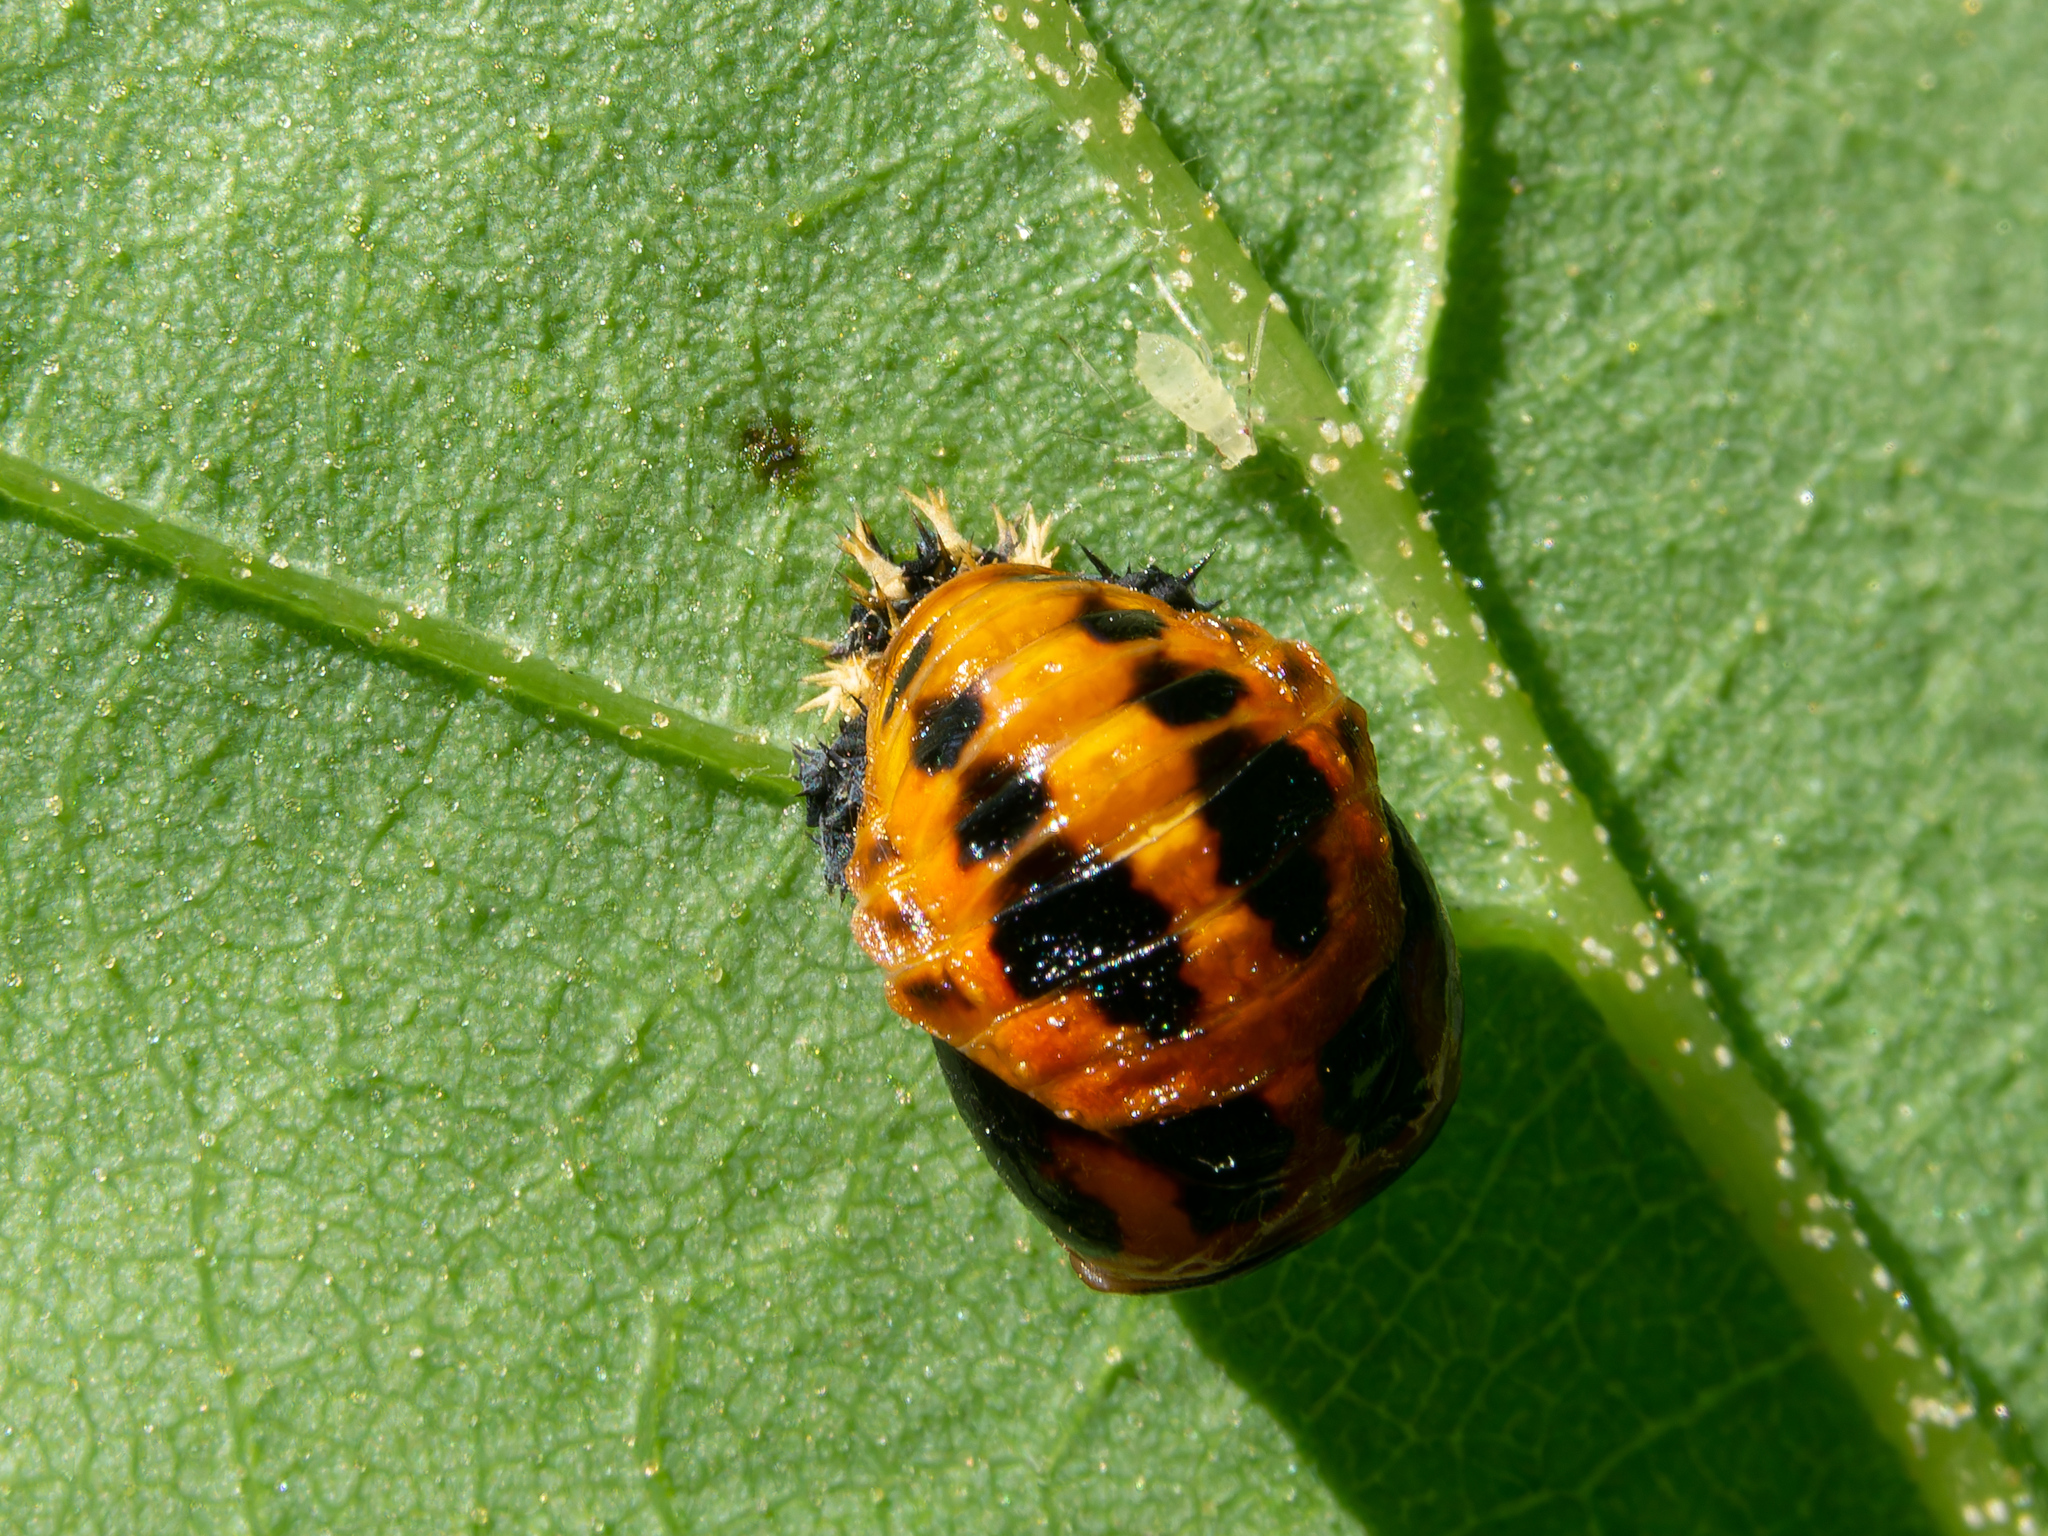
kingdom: Animalia
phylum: Arthropoda
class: Insecta
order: Coleoptera
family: Coccinellidae
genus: Harmonia
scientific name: Harmonia axyridis
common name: Harlequin ladybird
